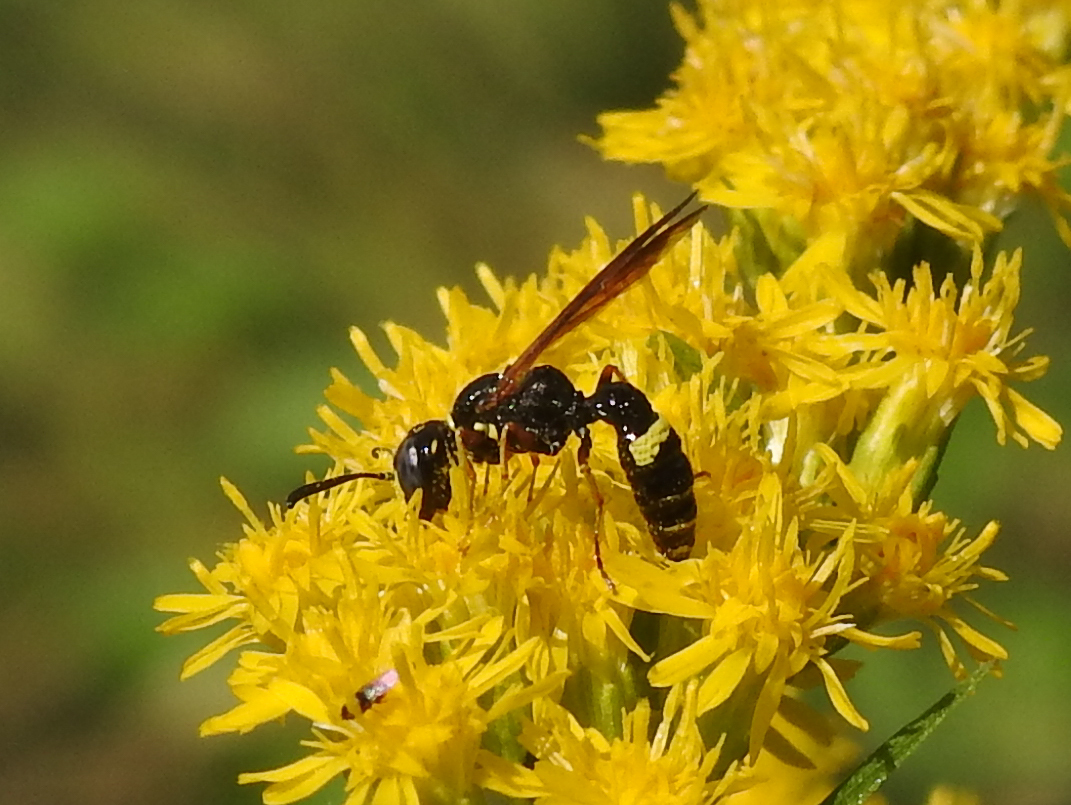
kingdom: Animalia
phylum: Arthropoda
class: Insecta
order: Hymenoptera
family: Crabronidae
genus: Philanthus
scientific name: Philanthus gibbosus
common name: Humped beewolf
